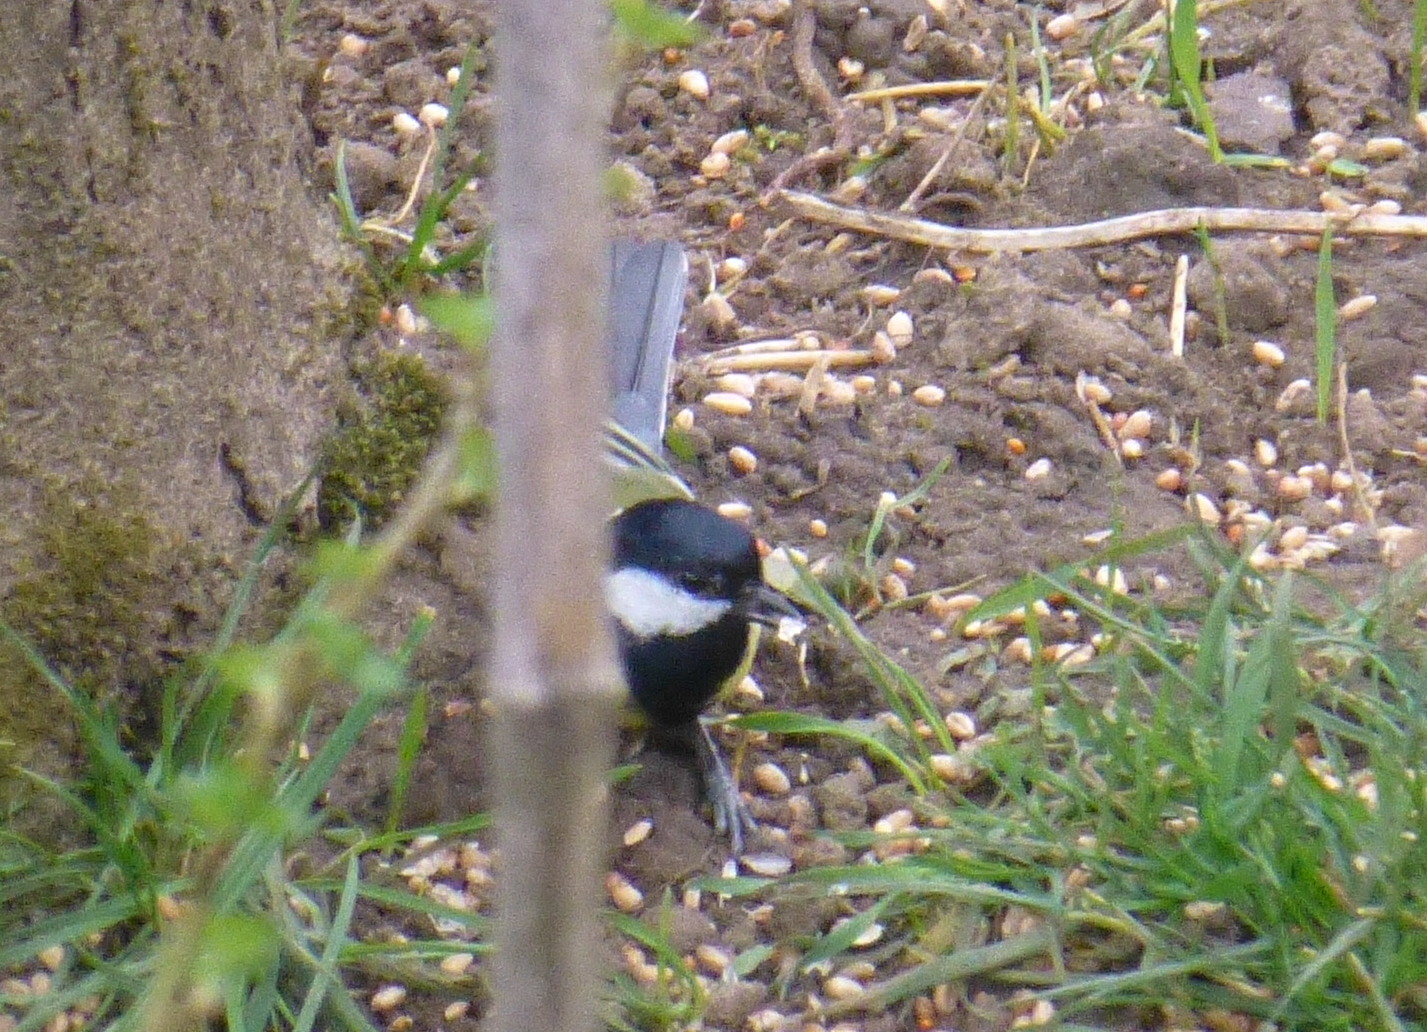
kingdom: Animalia
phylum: Chordata
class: Aves
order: Passeriformes
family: Paridae
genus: Parus
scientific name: Parus major
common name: Great tit
